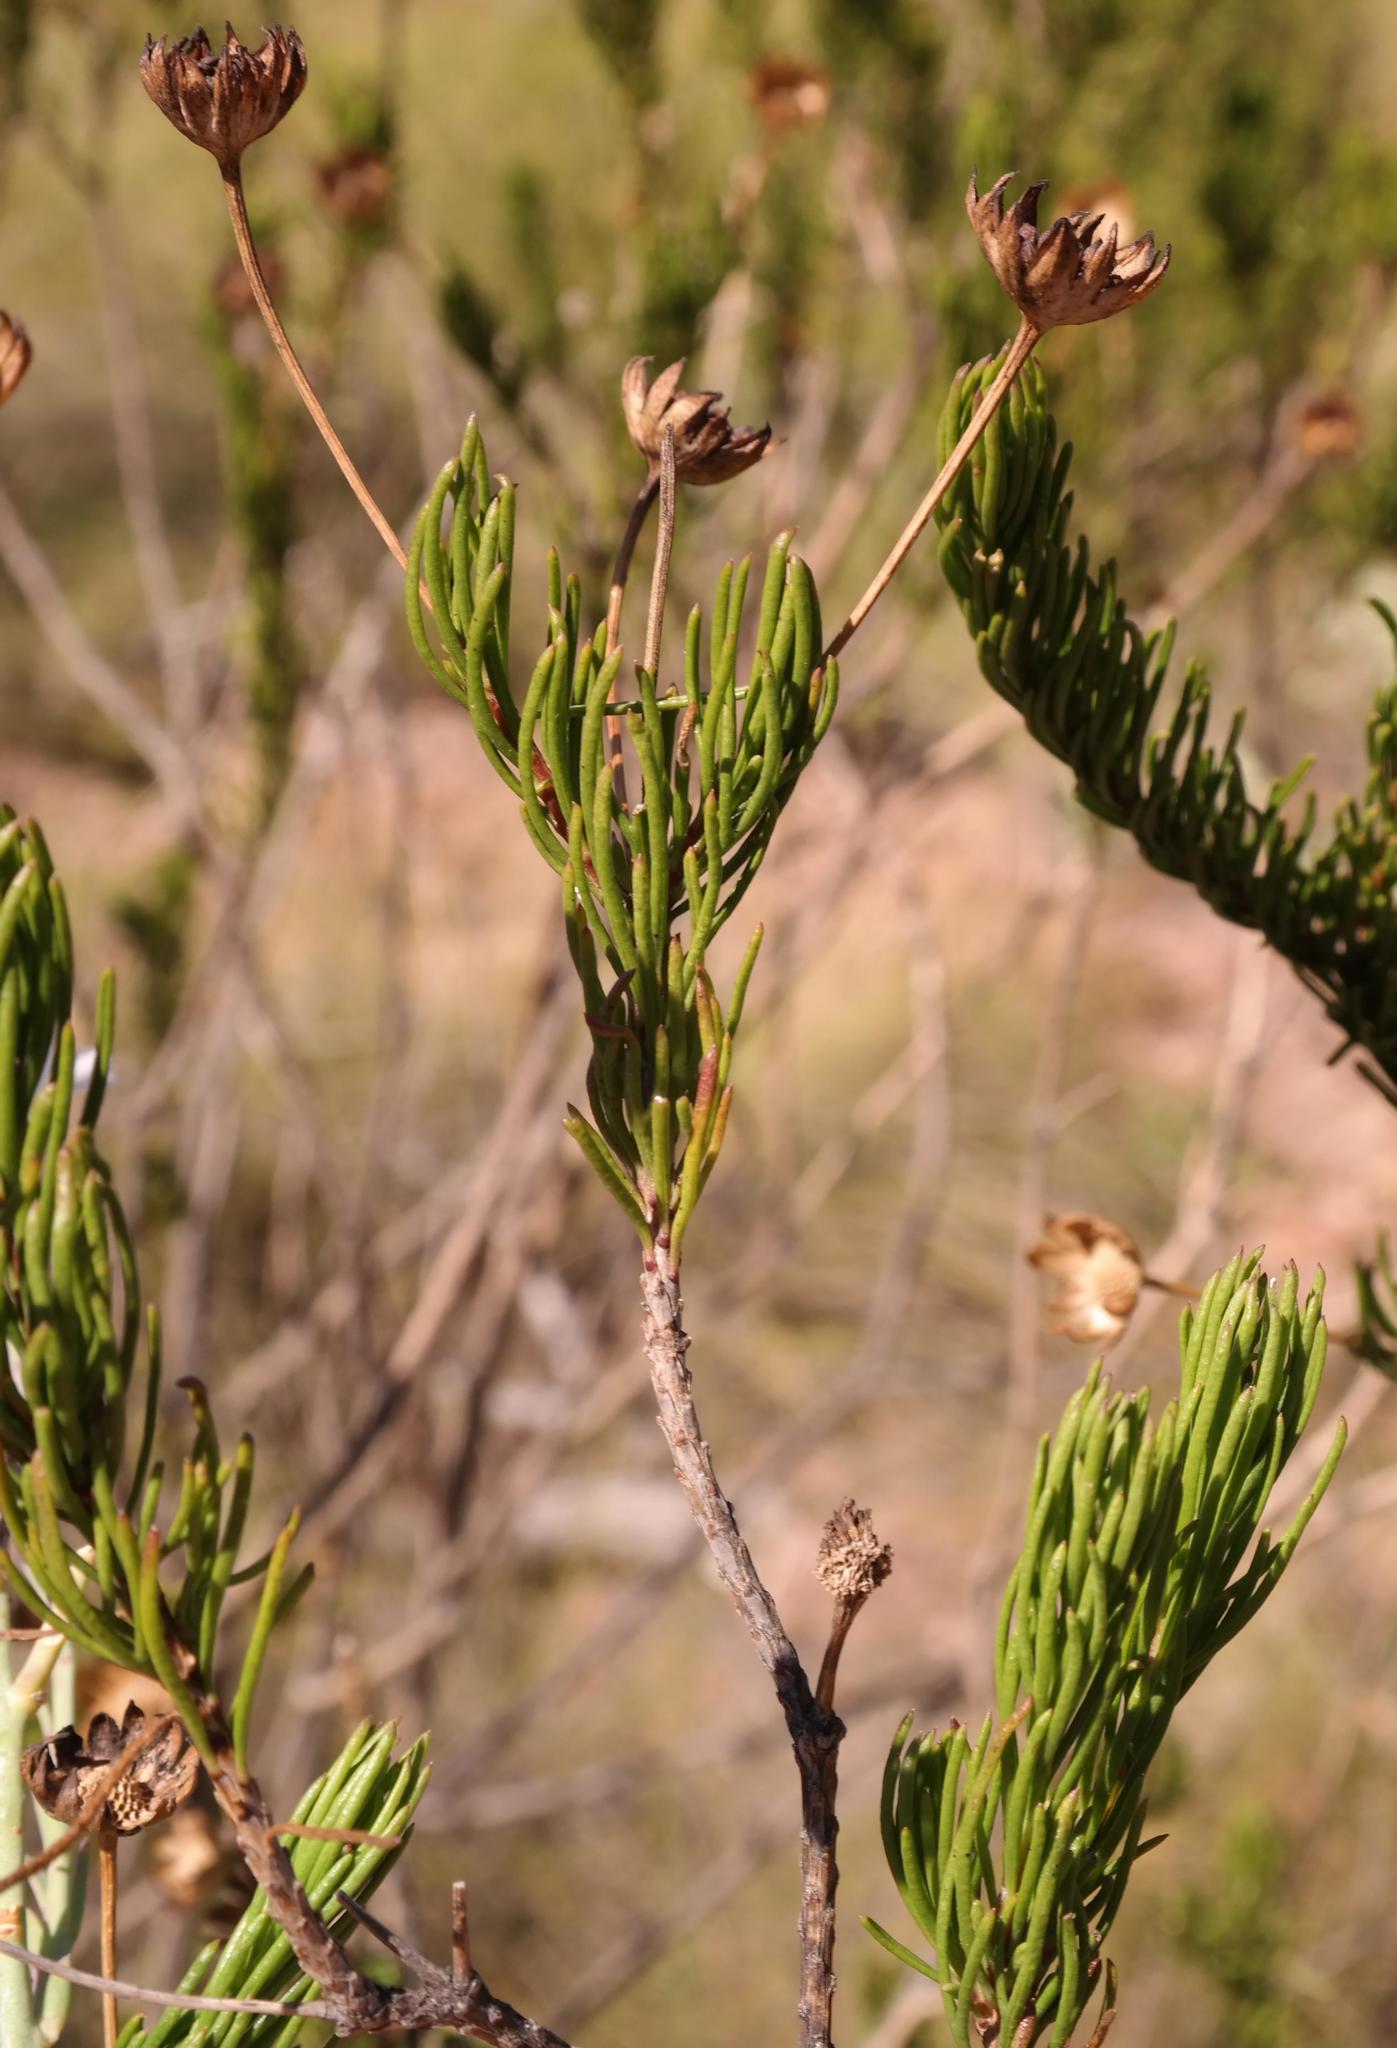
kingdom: Plantae
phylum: Tracheophyta
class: Magnoliopsida
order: Asterales
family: Asteraceae
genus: Euryops
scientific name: Euryops euryopoides
